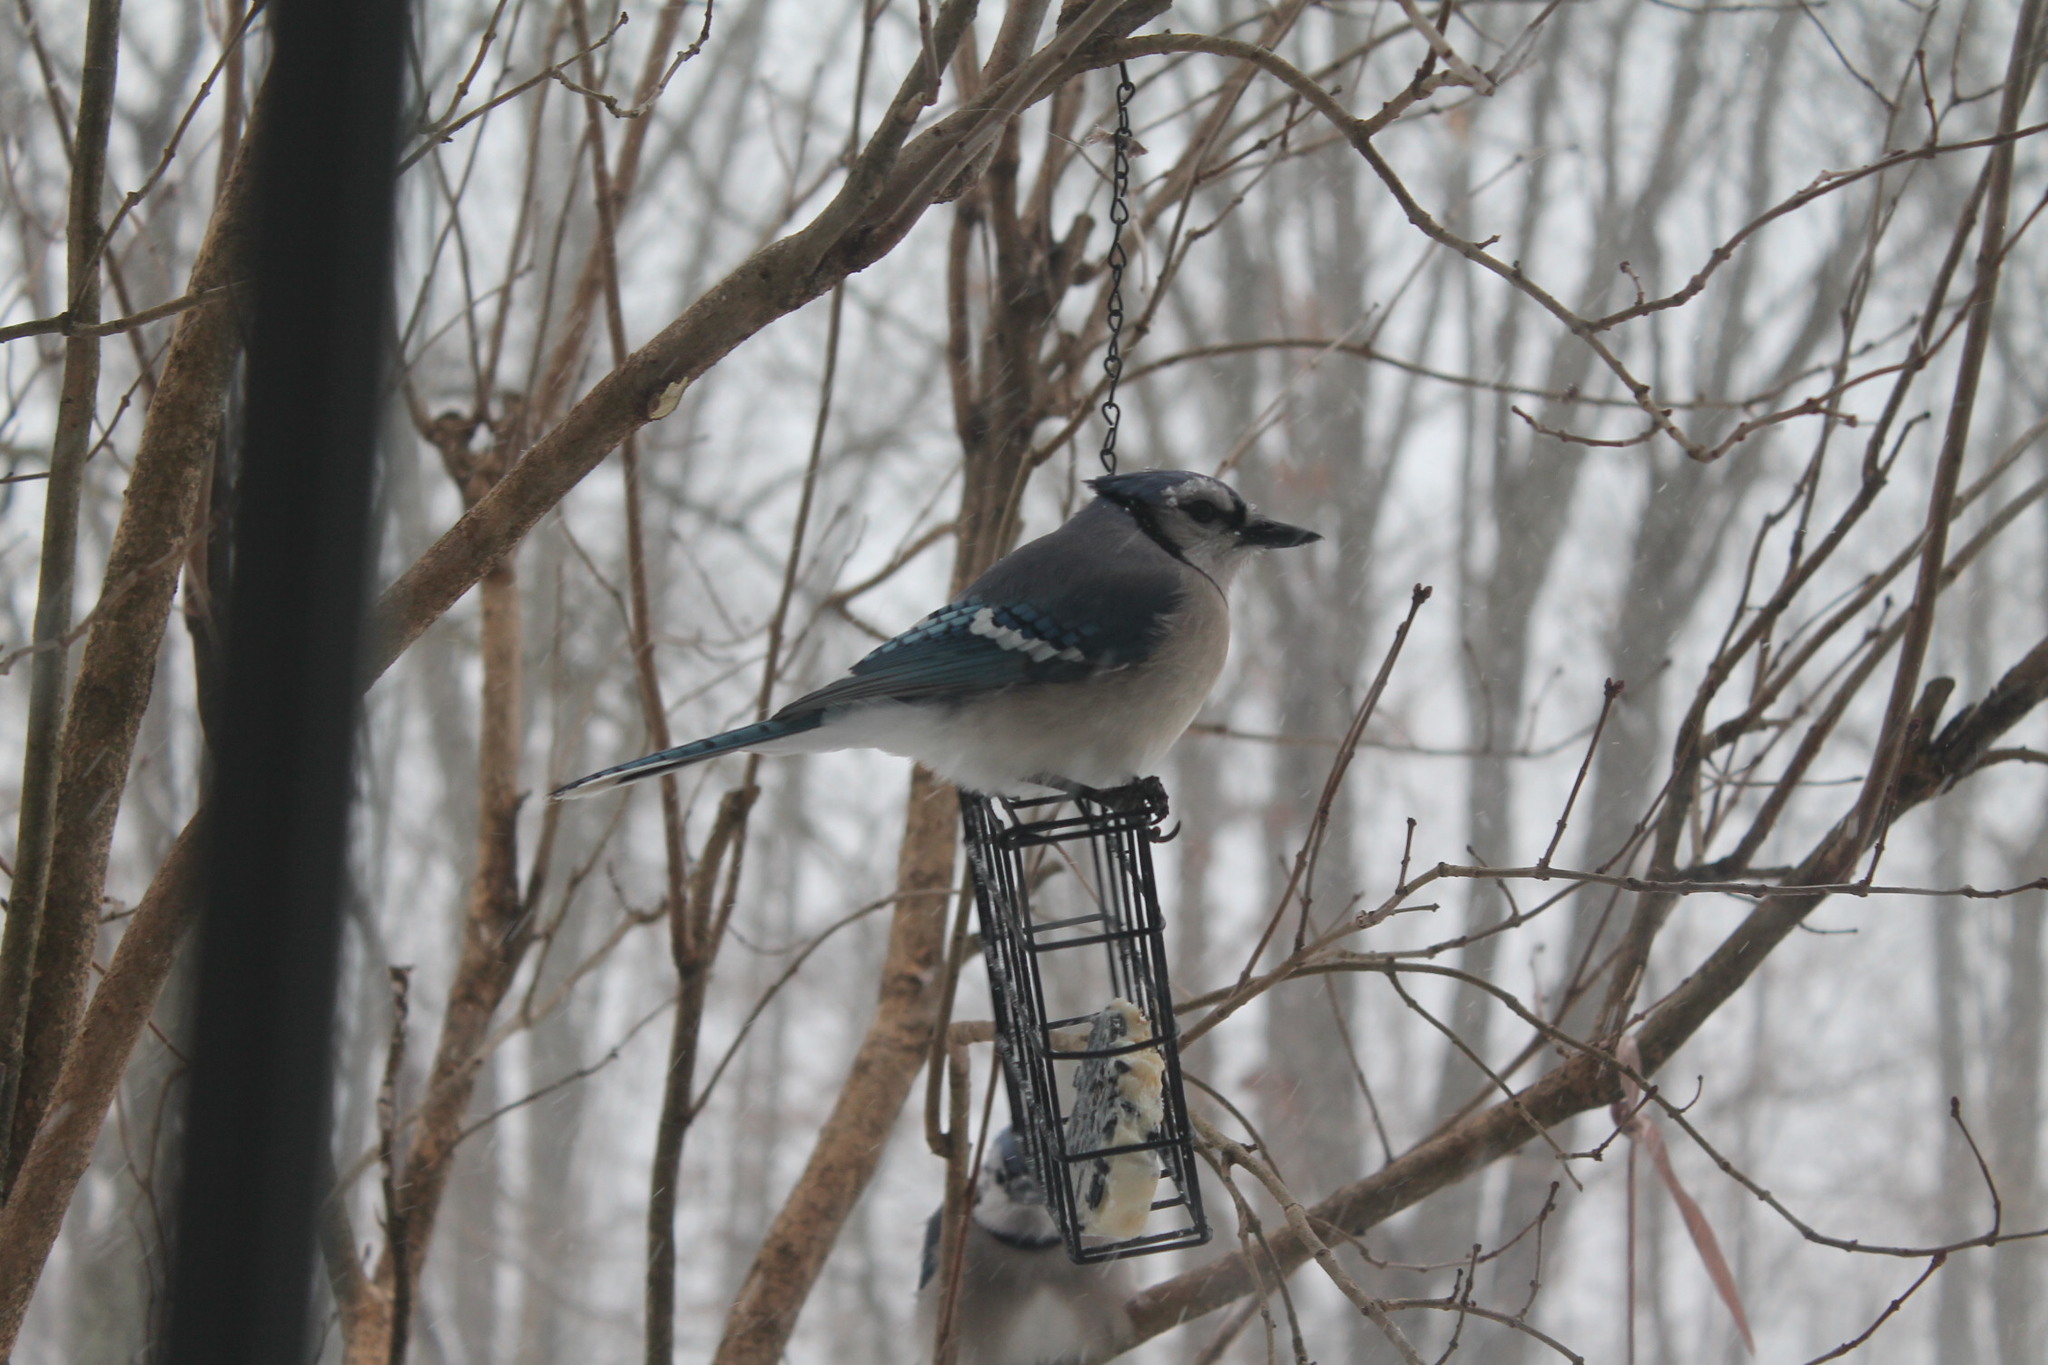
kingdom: Animalia
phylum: Chordata
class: Aves
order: Passeriformes
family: Corvidae
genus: Cyanocitta
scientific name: Cyanocitta cristata
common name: Blue jay
